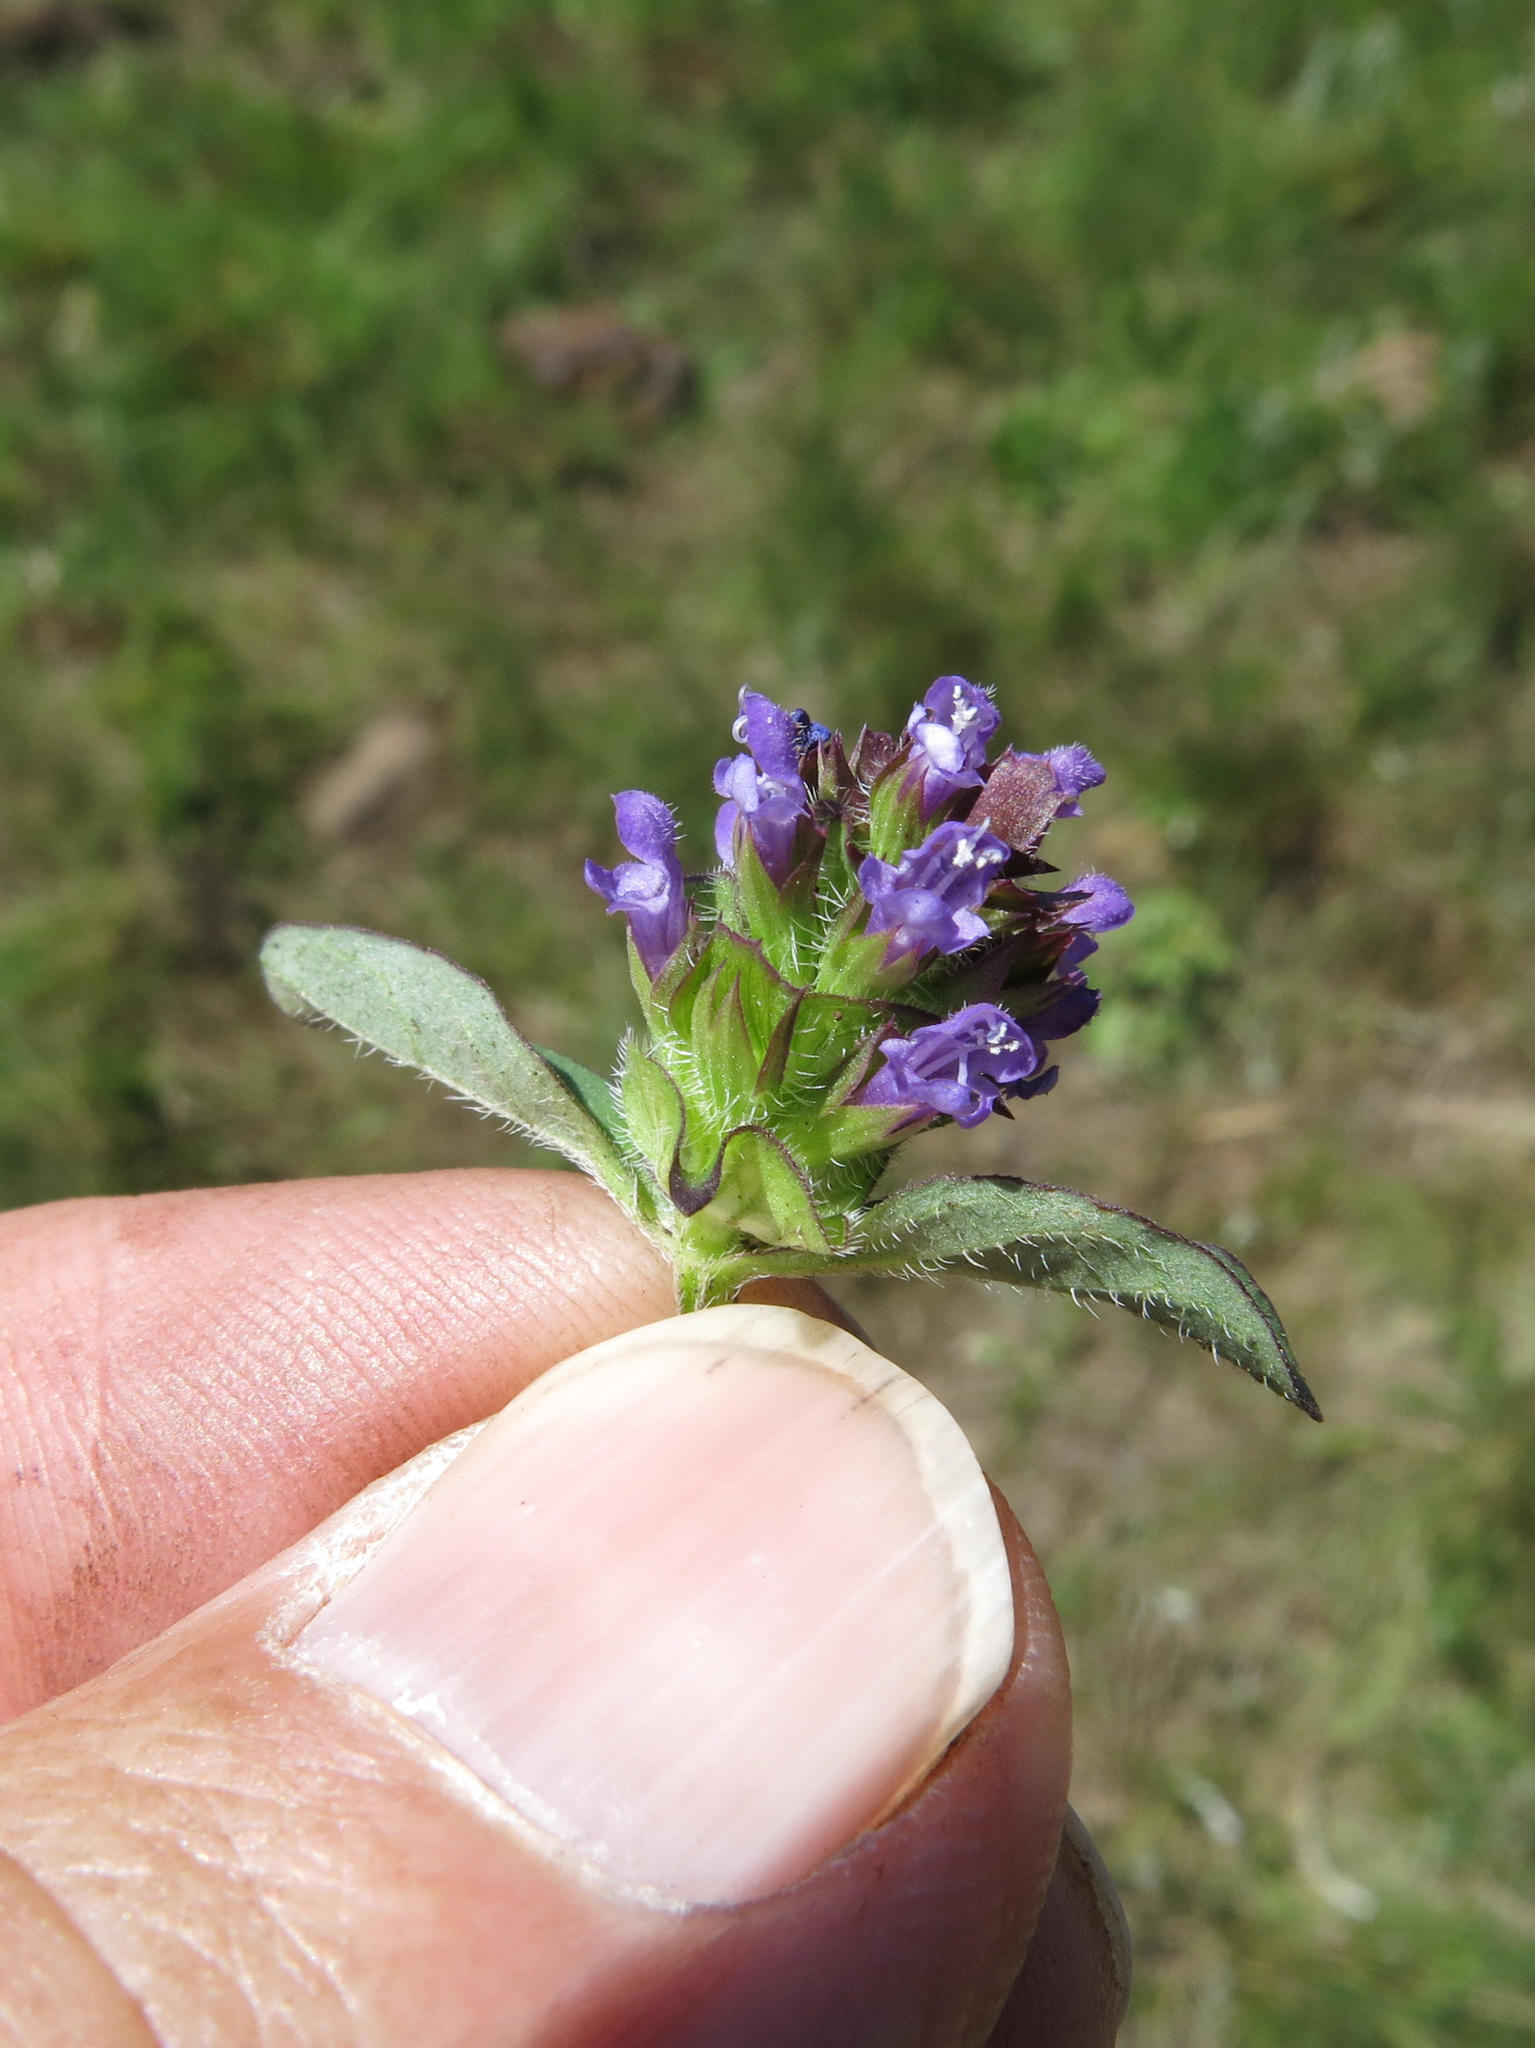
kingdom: Plantae
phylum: Tracheophyta
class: Magnoliopsida
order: Lamiales
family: Lamiaceae
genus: Prunella
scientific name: Prunella vulgaris
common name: Heal-all
